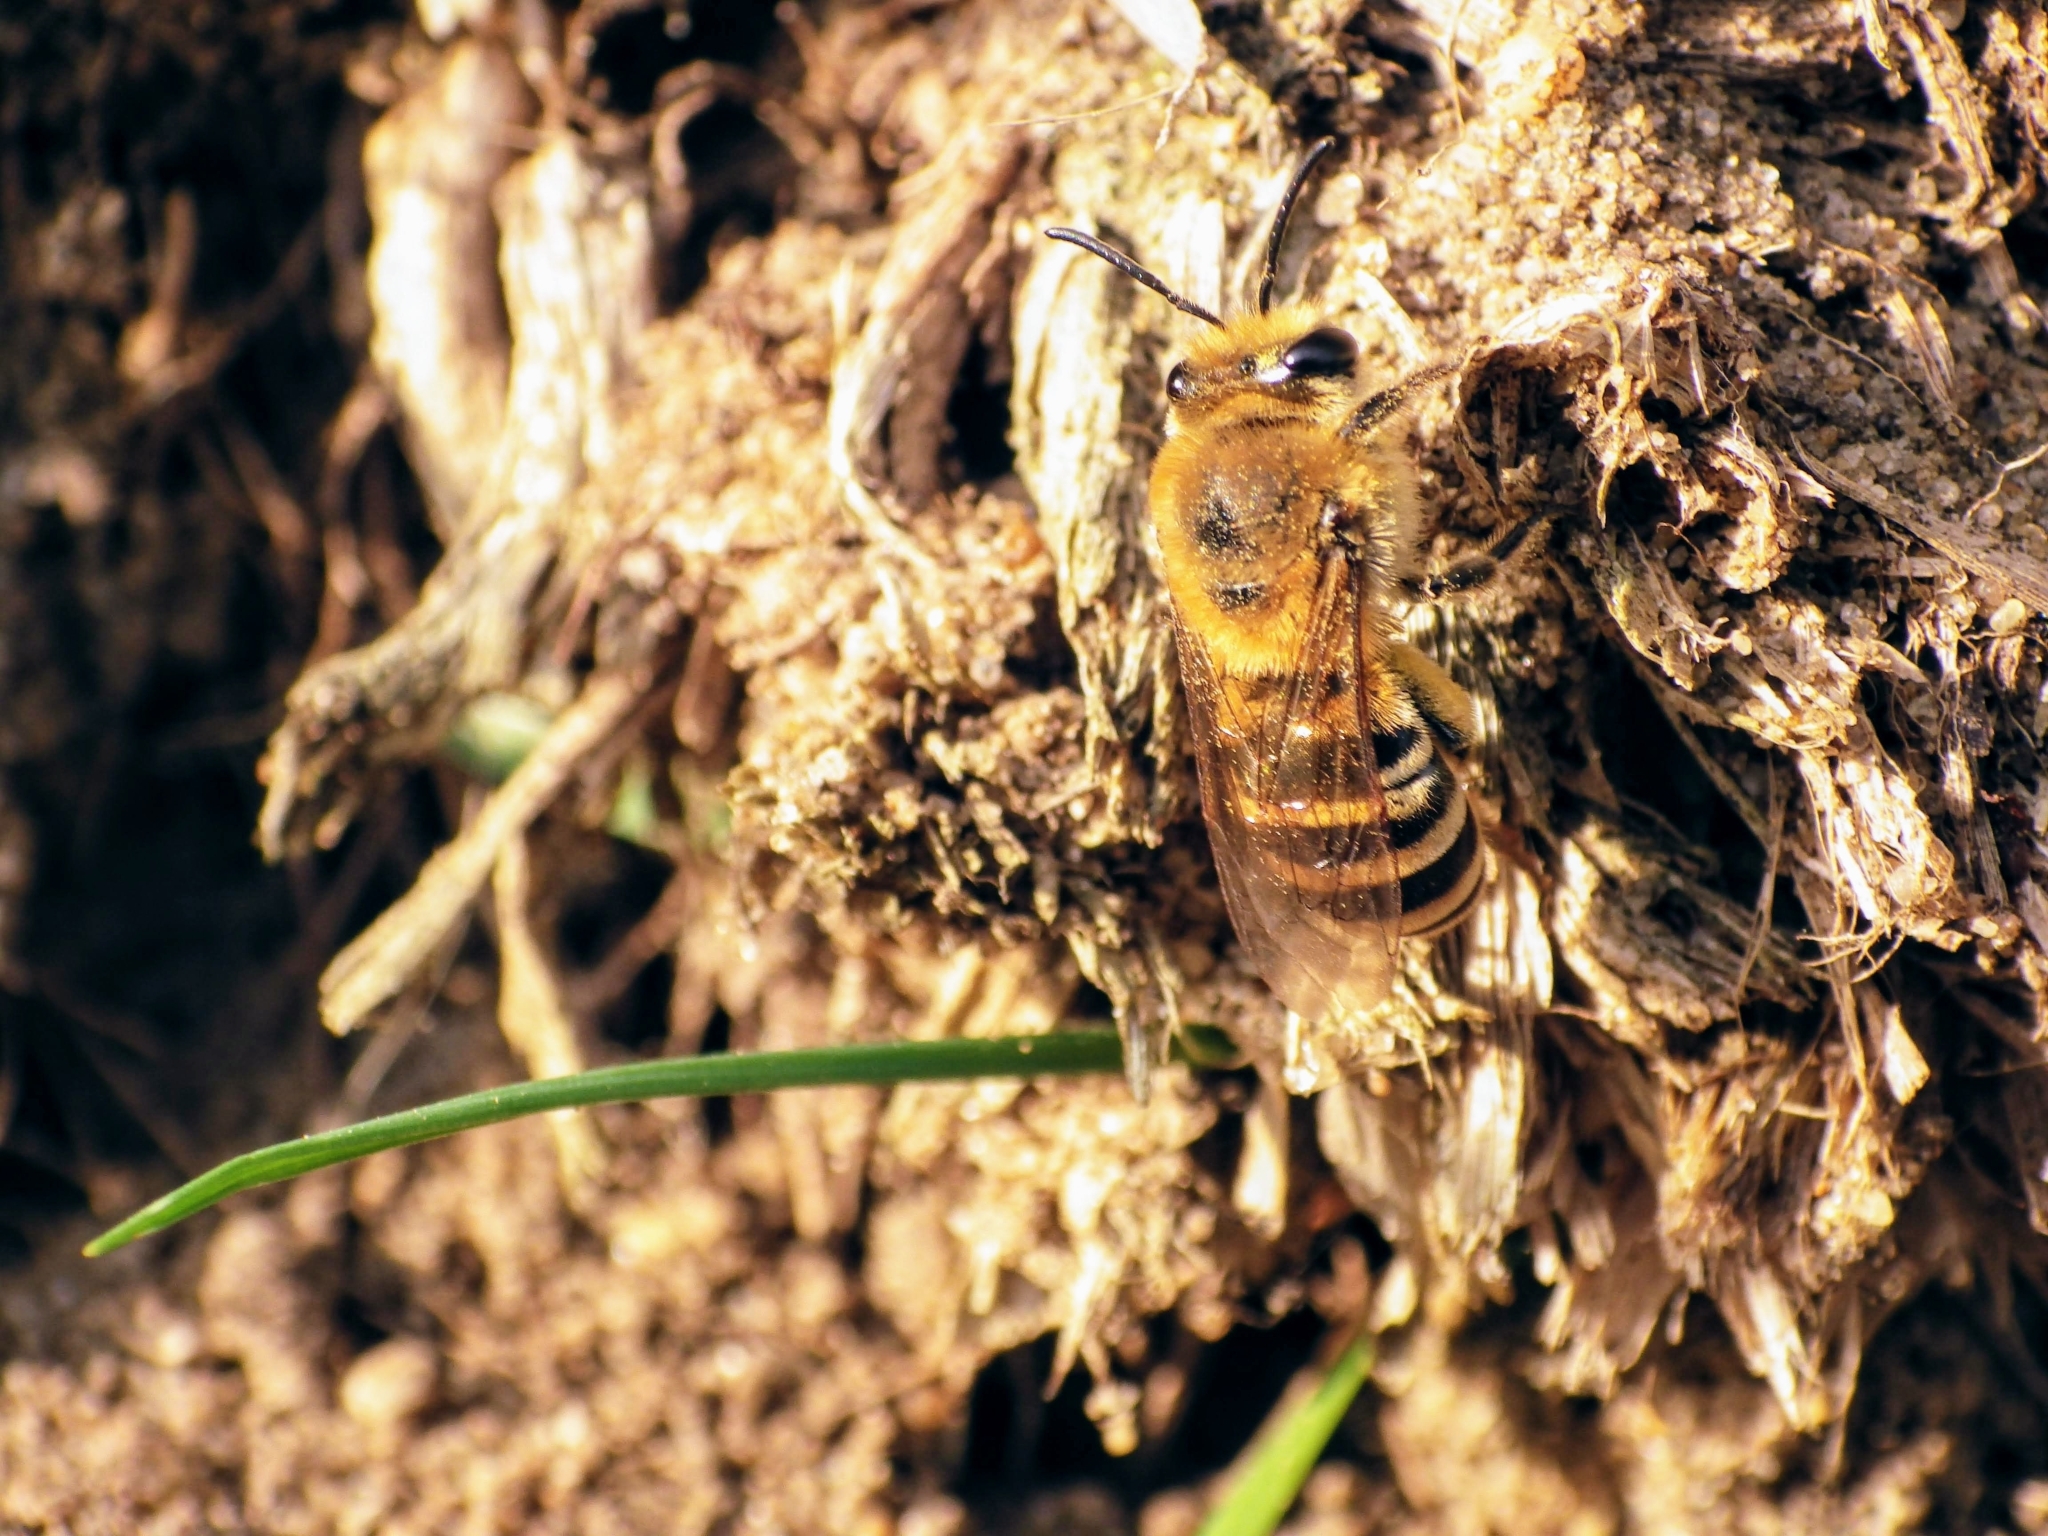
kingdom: Animalia
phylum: Arthropoda
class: Insecta
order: Hymenoptera
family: Colletidae
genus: Colletes
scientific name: Colletes hederae
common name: Ivy bee
